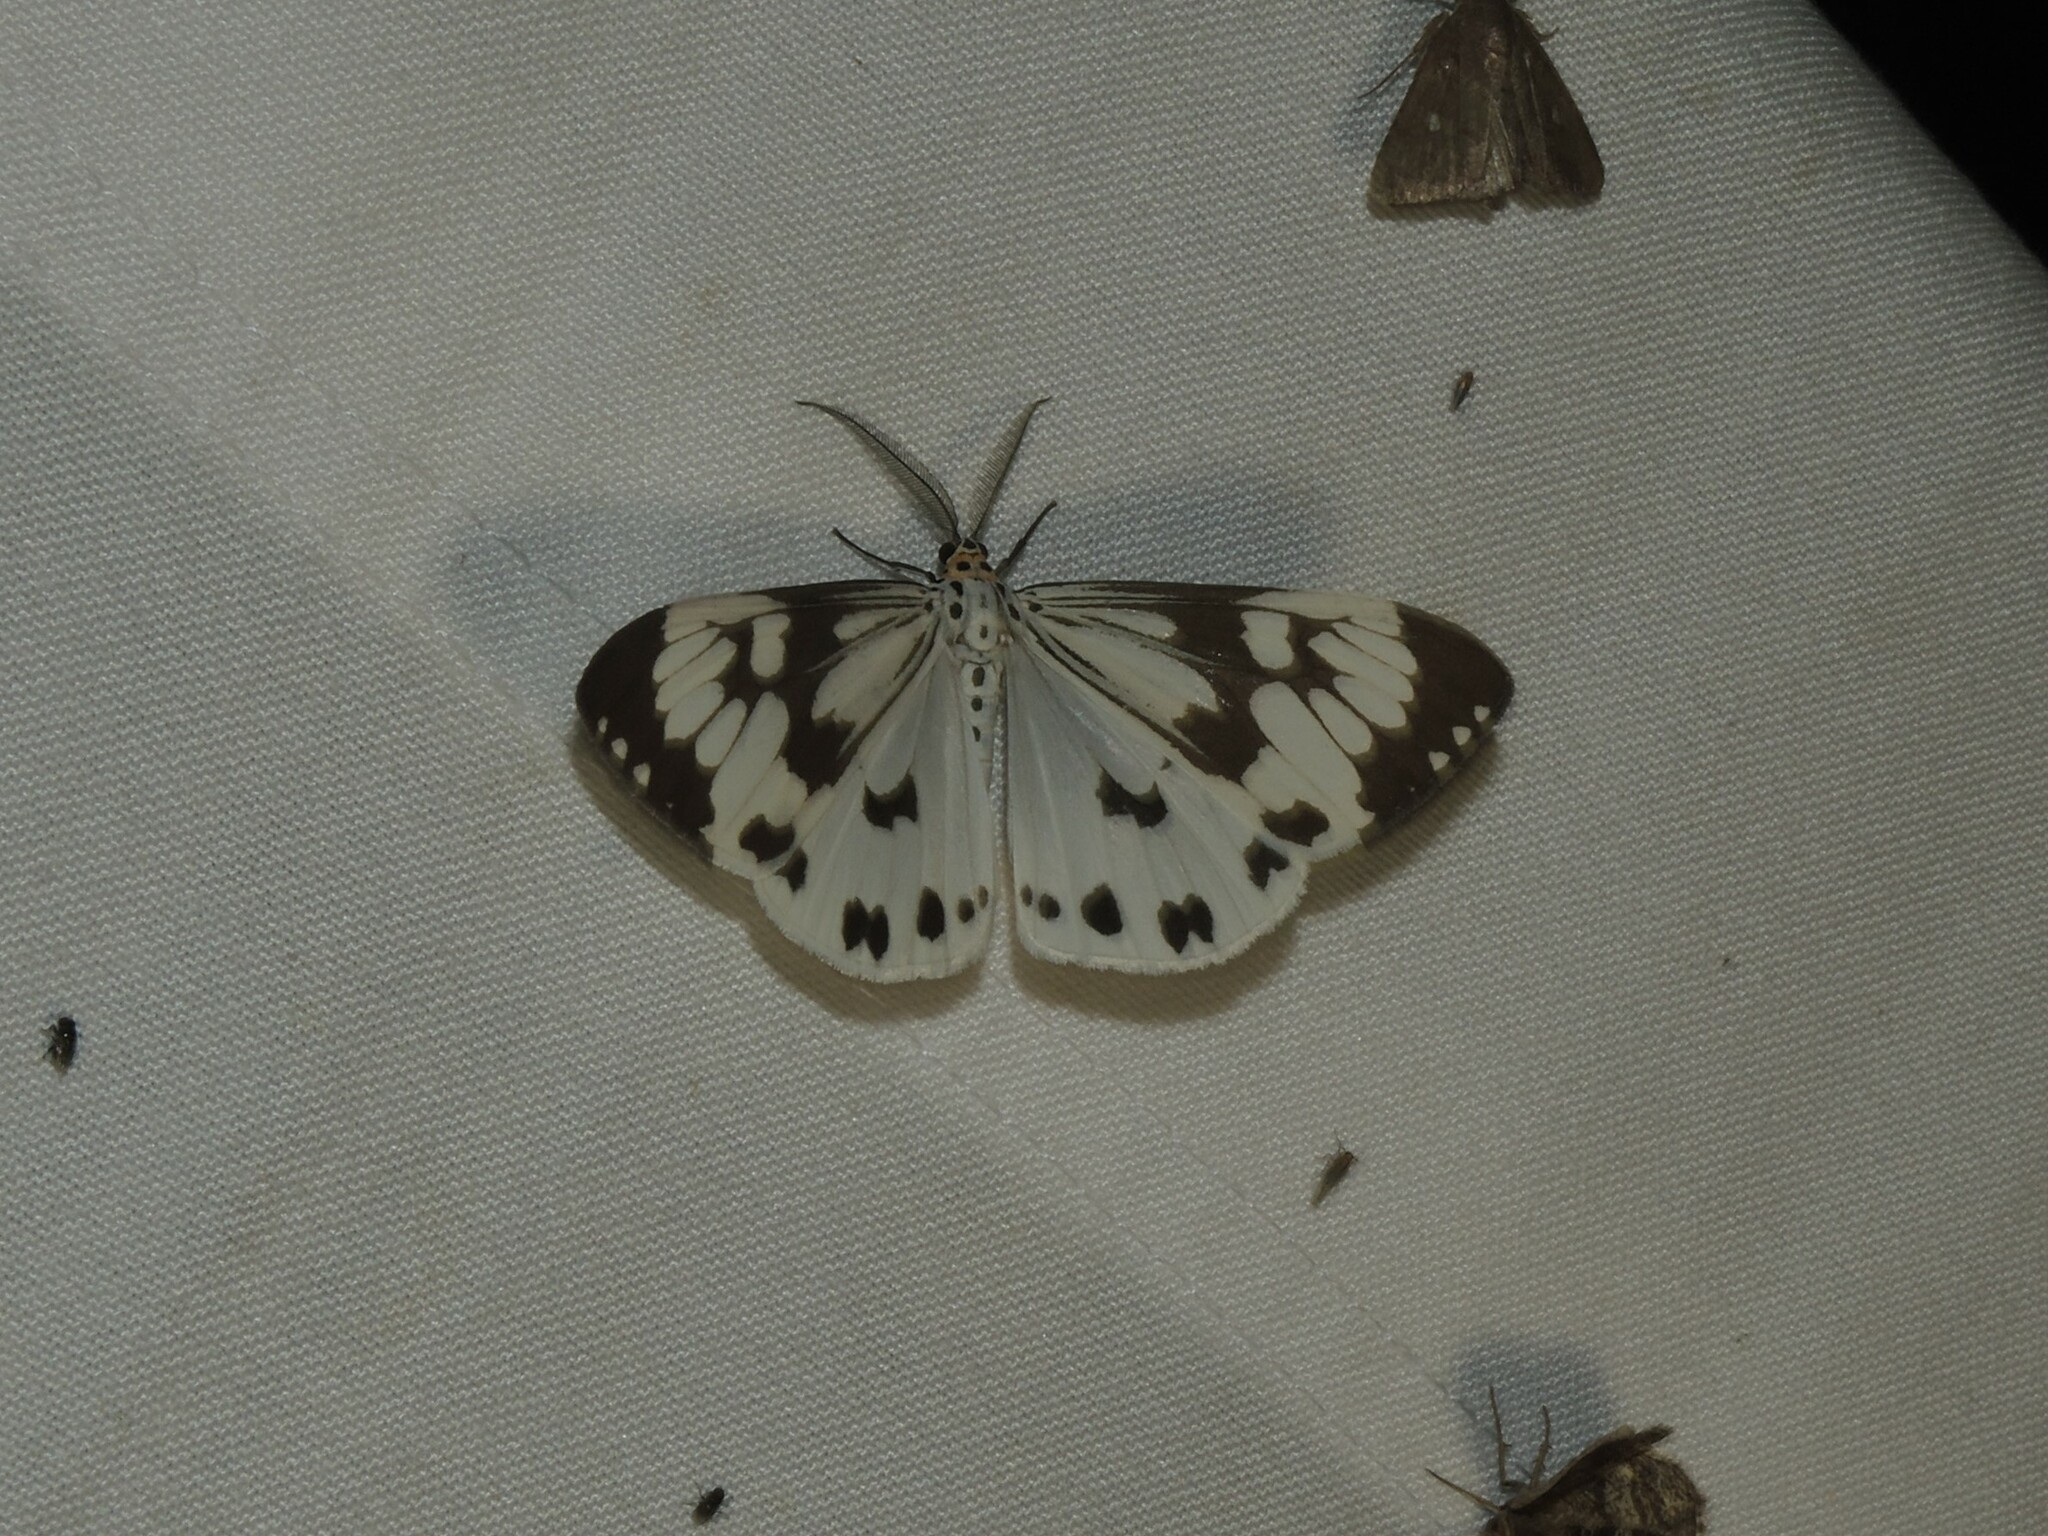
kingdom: Animalia
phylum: Arthropoda
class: Insecta
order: Lepidoptera
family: Erebidae
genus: Nyctemera
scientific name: Nyctemera adversata
